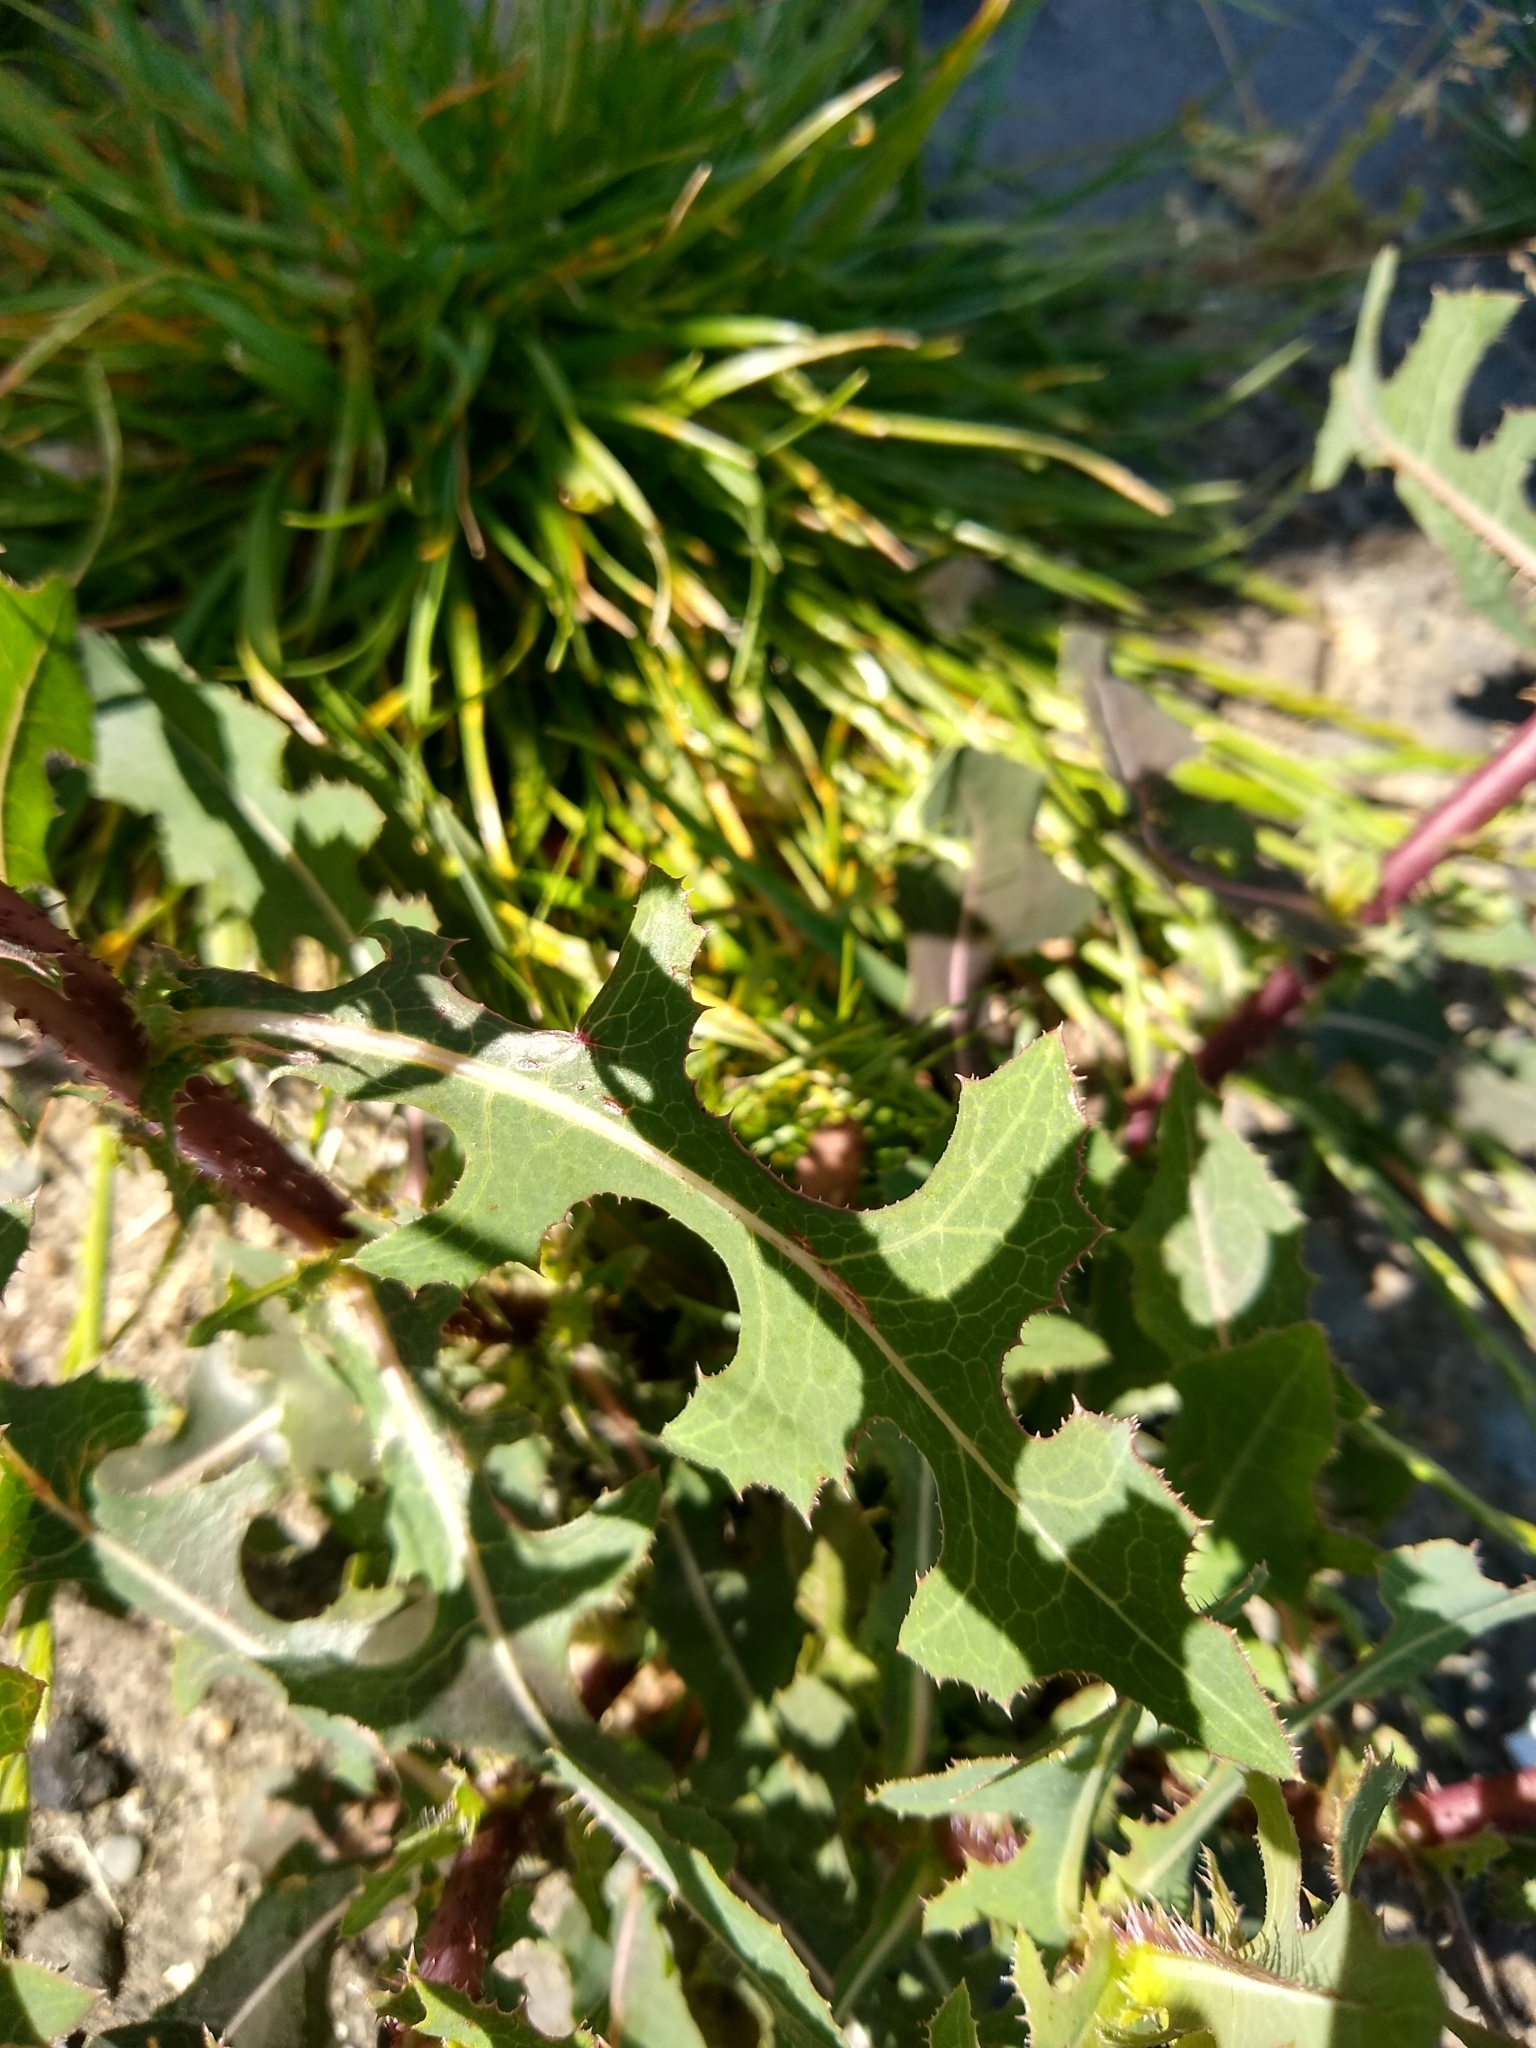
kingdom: Plantae
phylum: Tracheophyta
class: Magnoliopsida
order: Asterales
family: Asteraceae
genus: Lactuca
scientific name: Lactuca serriola
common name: Prickly lettuce
